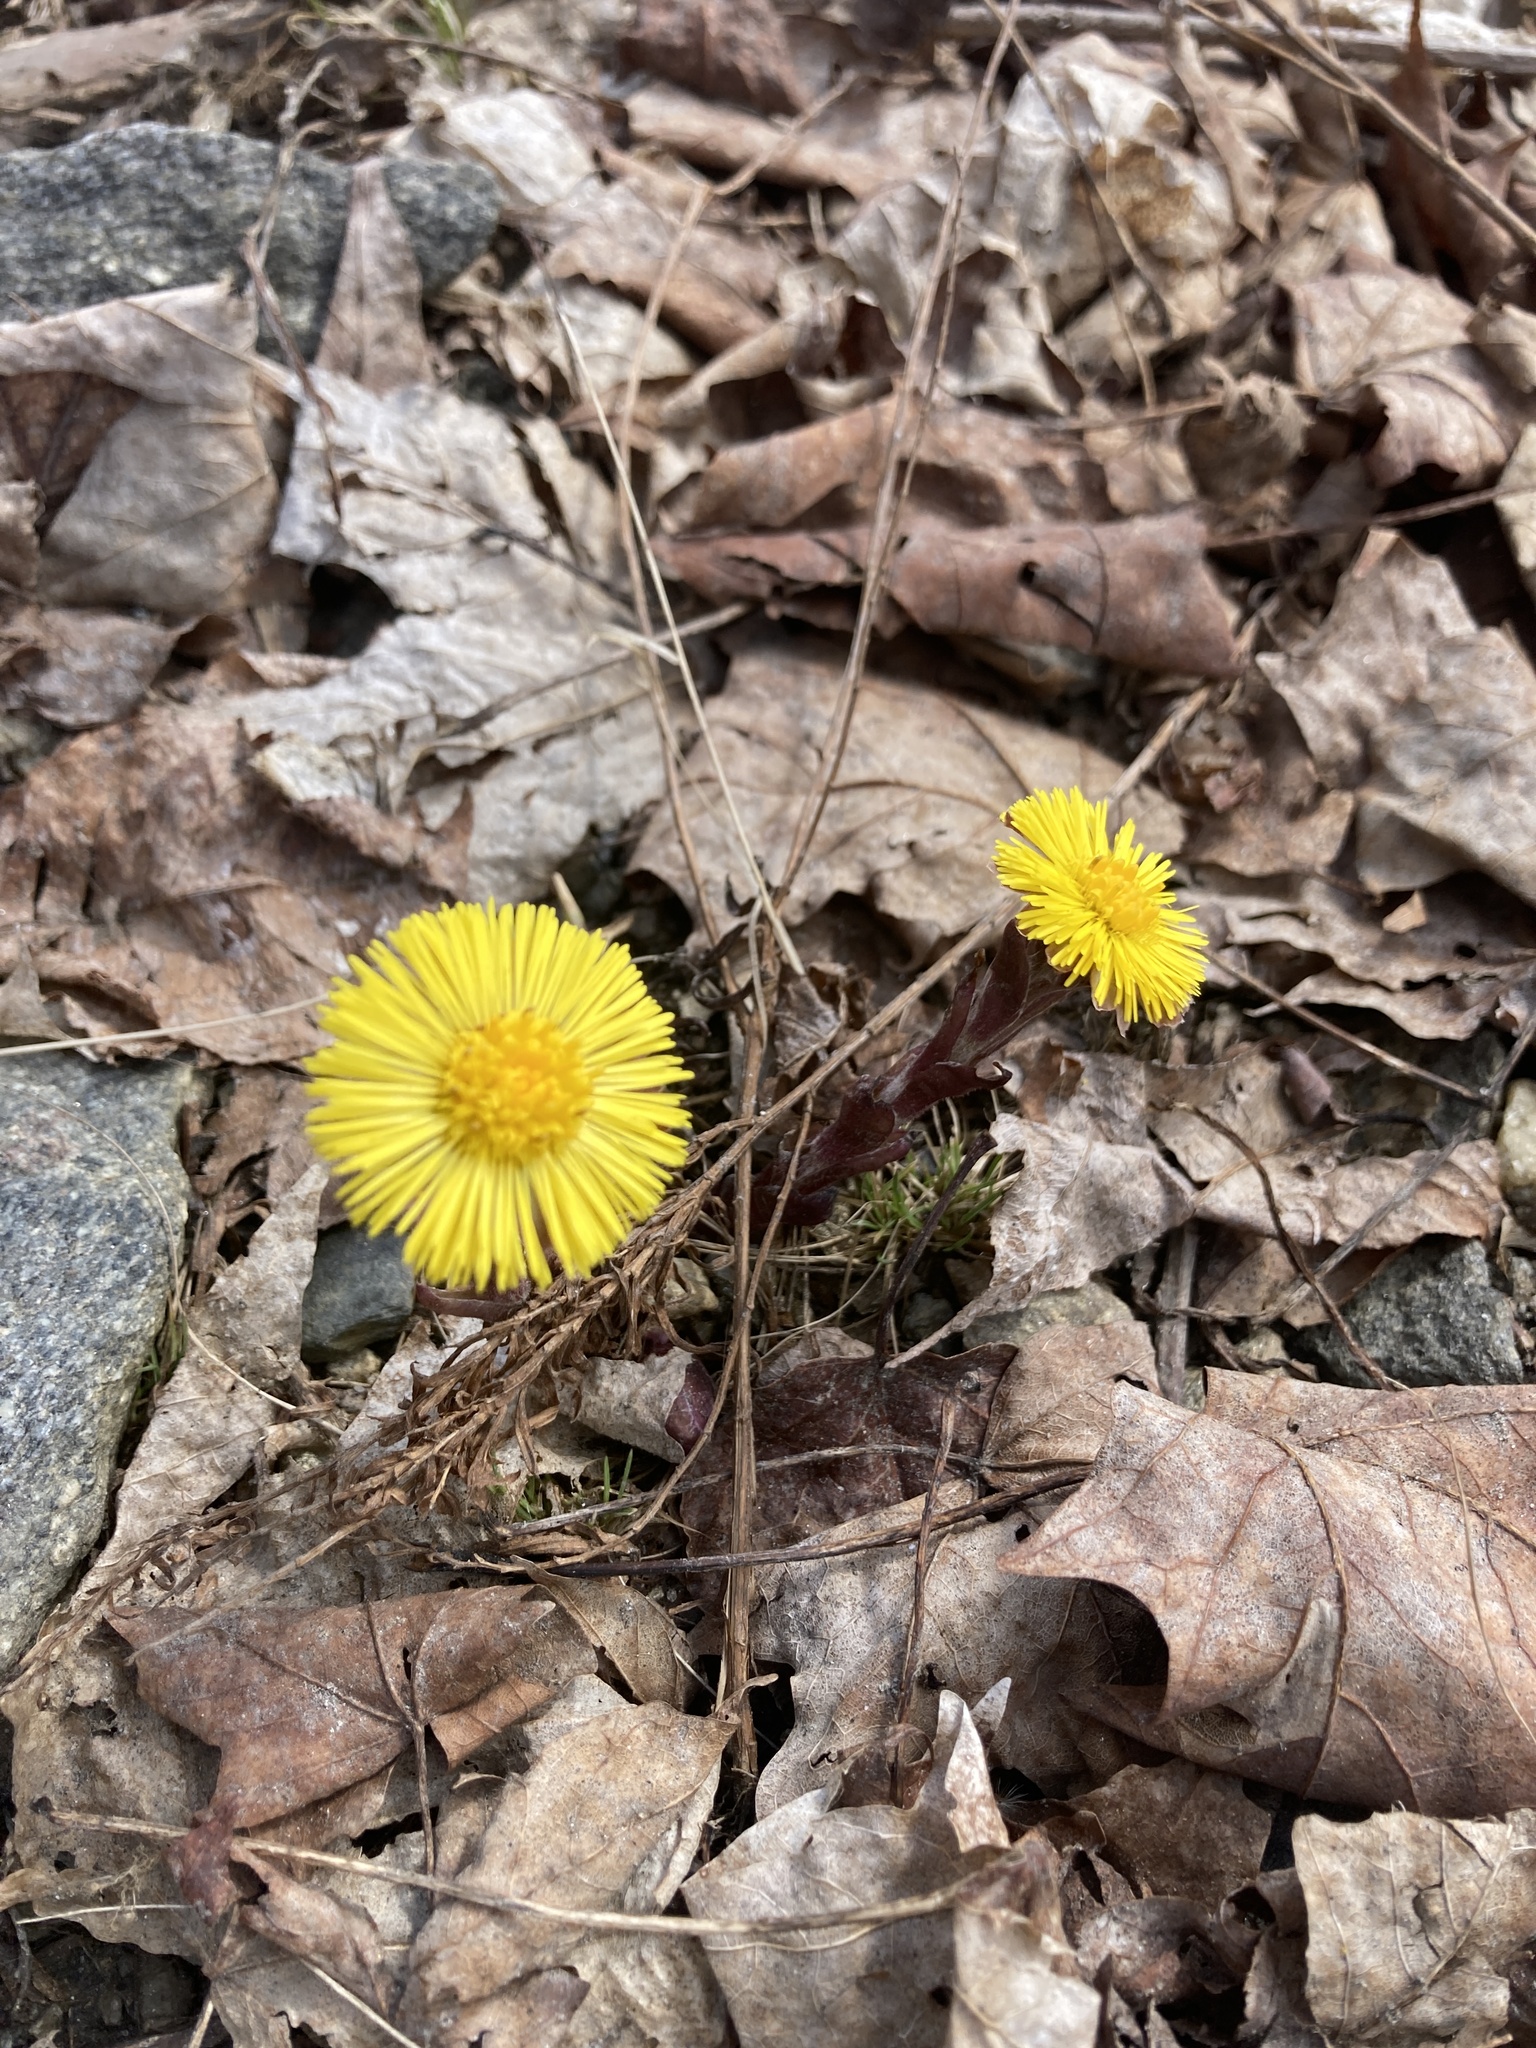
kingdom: Plantae
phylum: Tracheophyta
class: Magnoliopsida
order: Asterales
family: Asteraceae
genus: Tussilago
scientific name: Tussilago farfara
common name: Coltsfoot
